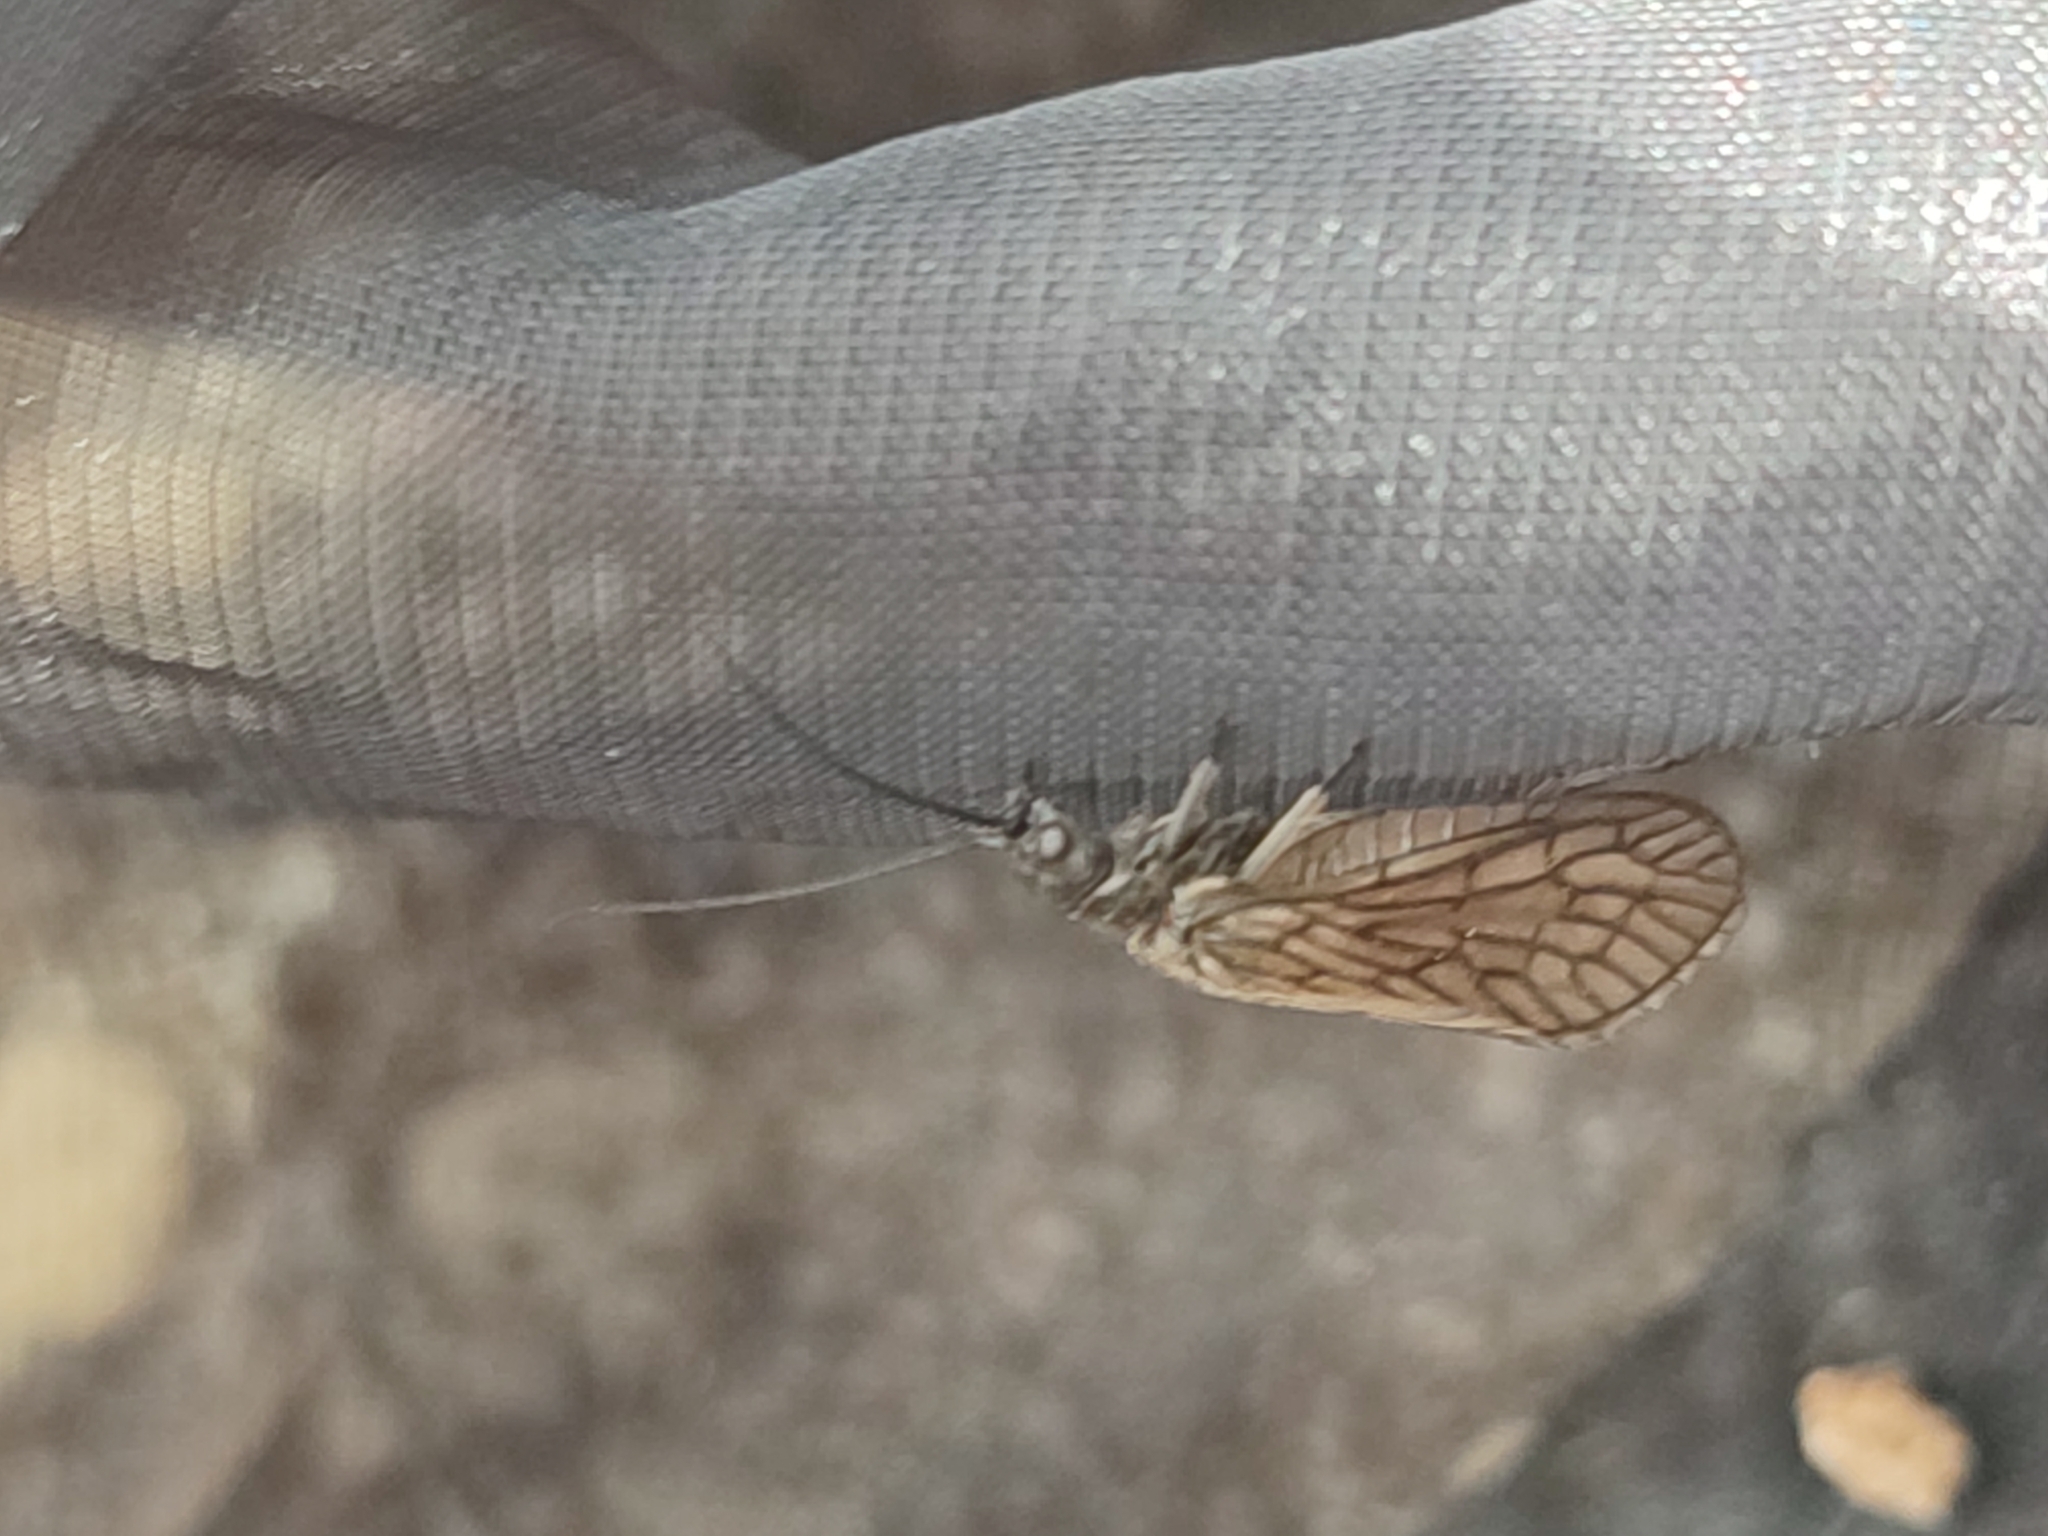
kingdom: Animalia
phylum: Arthropoda
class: Insecta
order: Megaloptera
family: Sialidae
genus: Sialis
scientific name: Sialis
